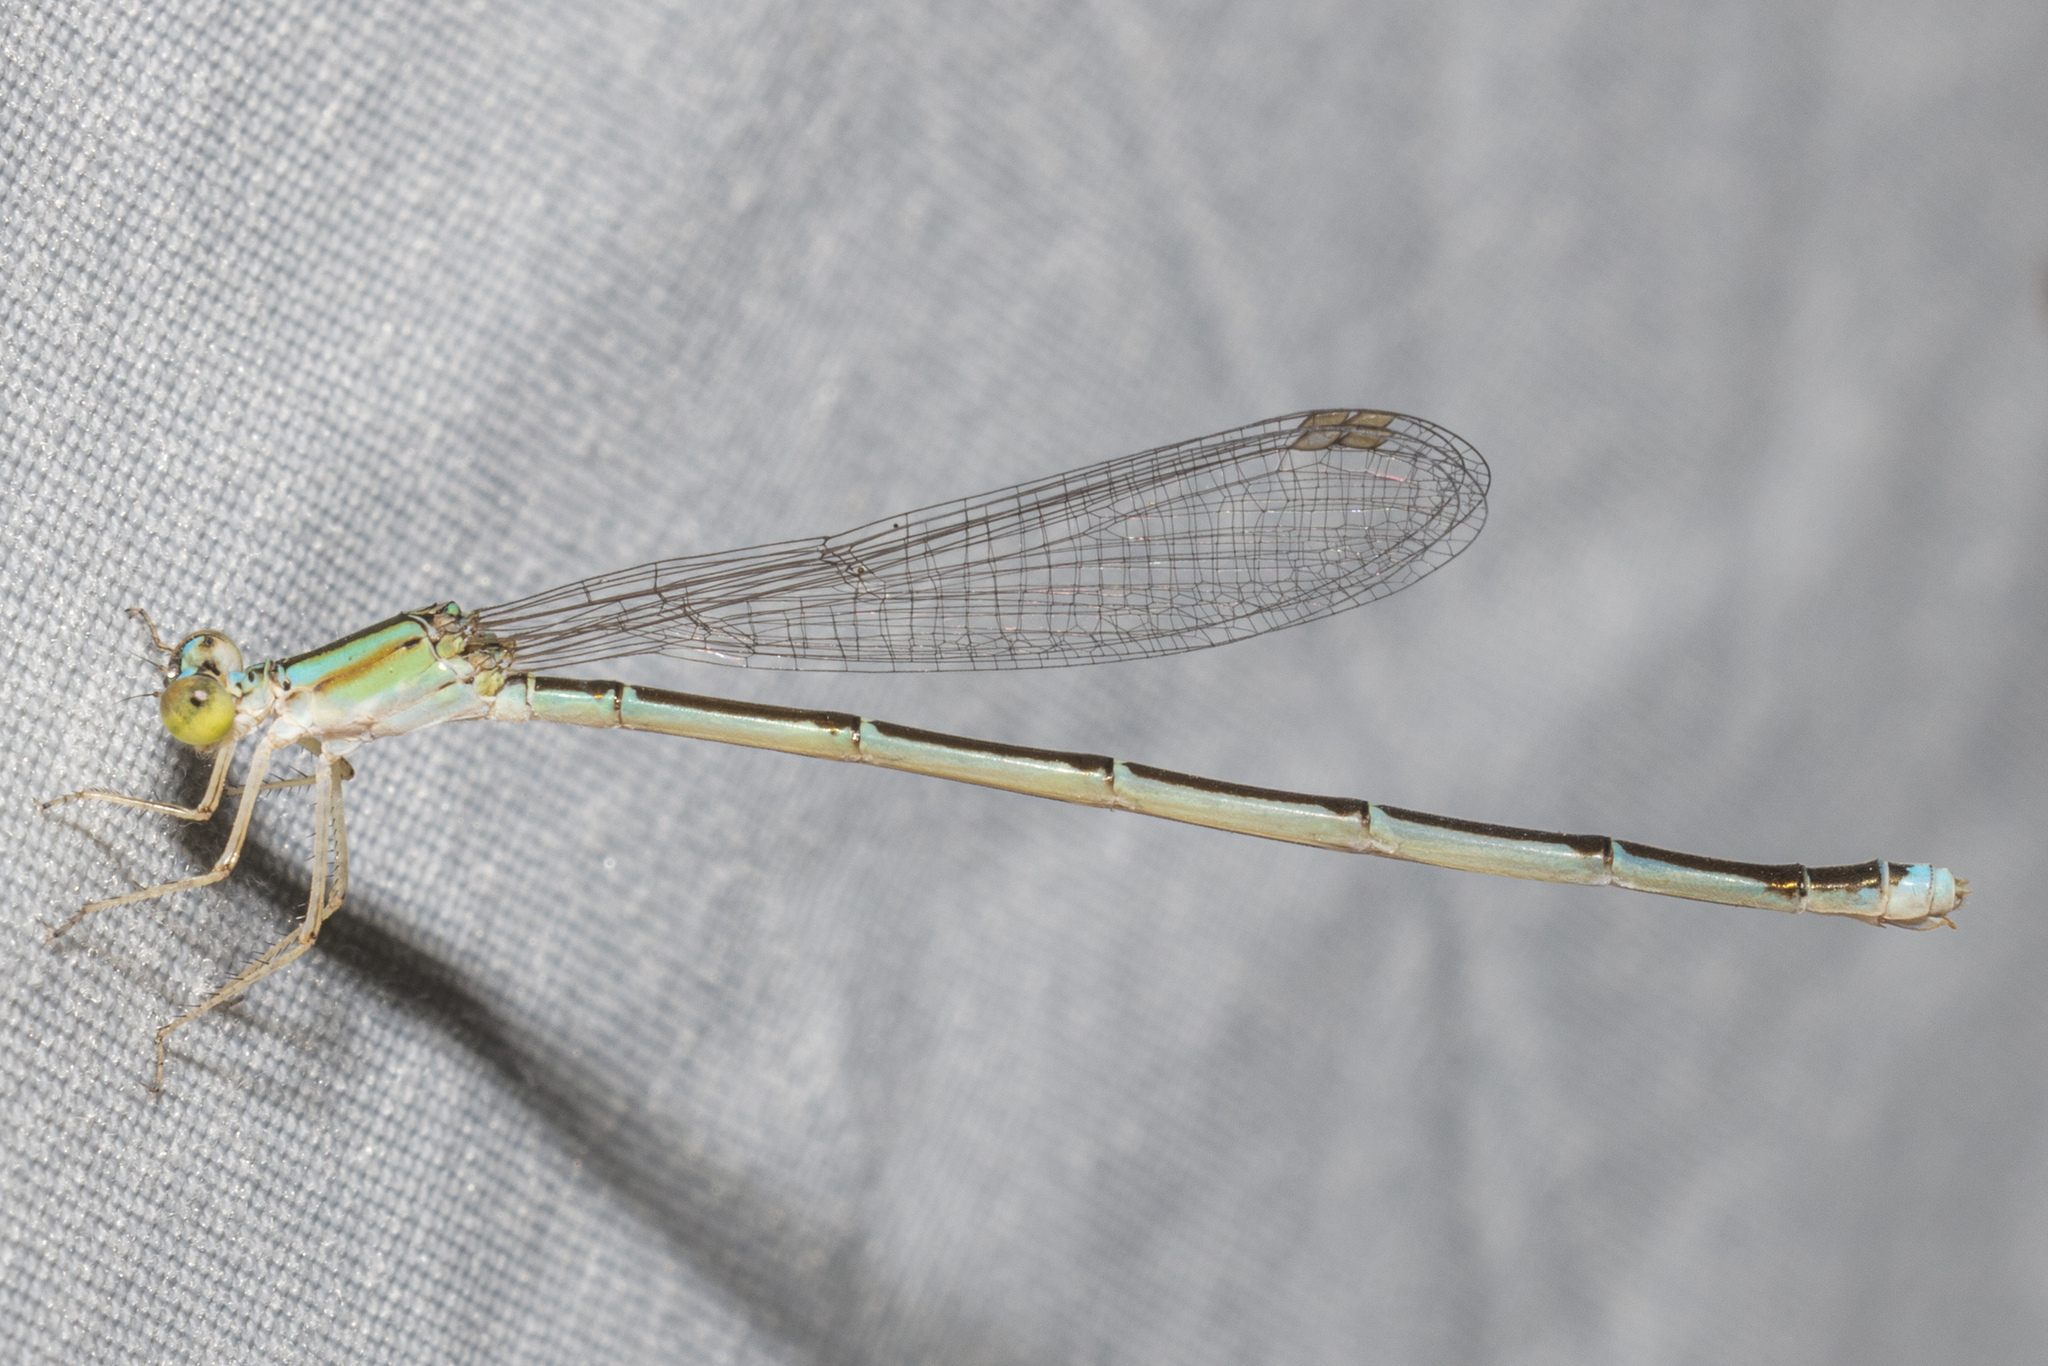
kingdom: Animalia
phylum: Arthropoda
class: Insecta
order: Odonata
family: Coenagrionidae
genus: Enallagma
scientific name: Enallagma vesperum
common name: Vesper bluet
